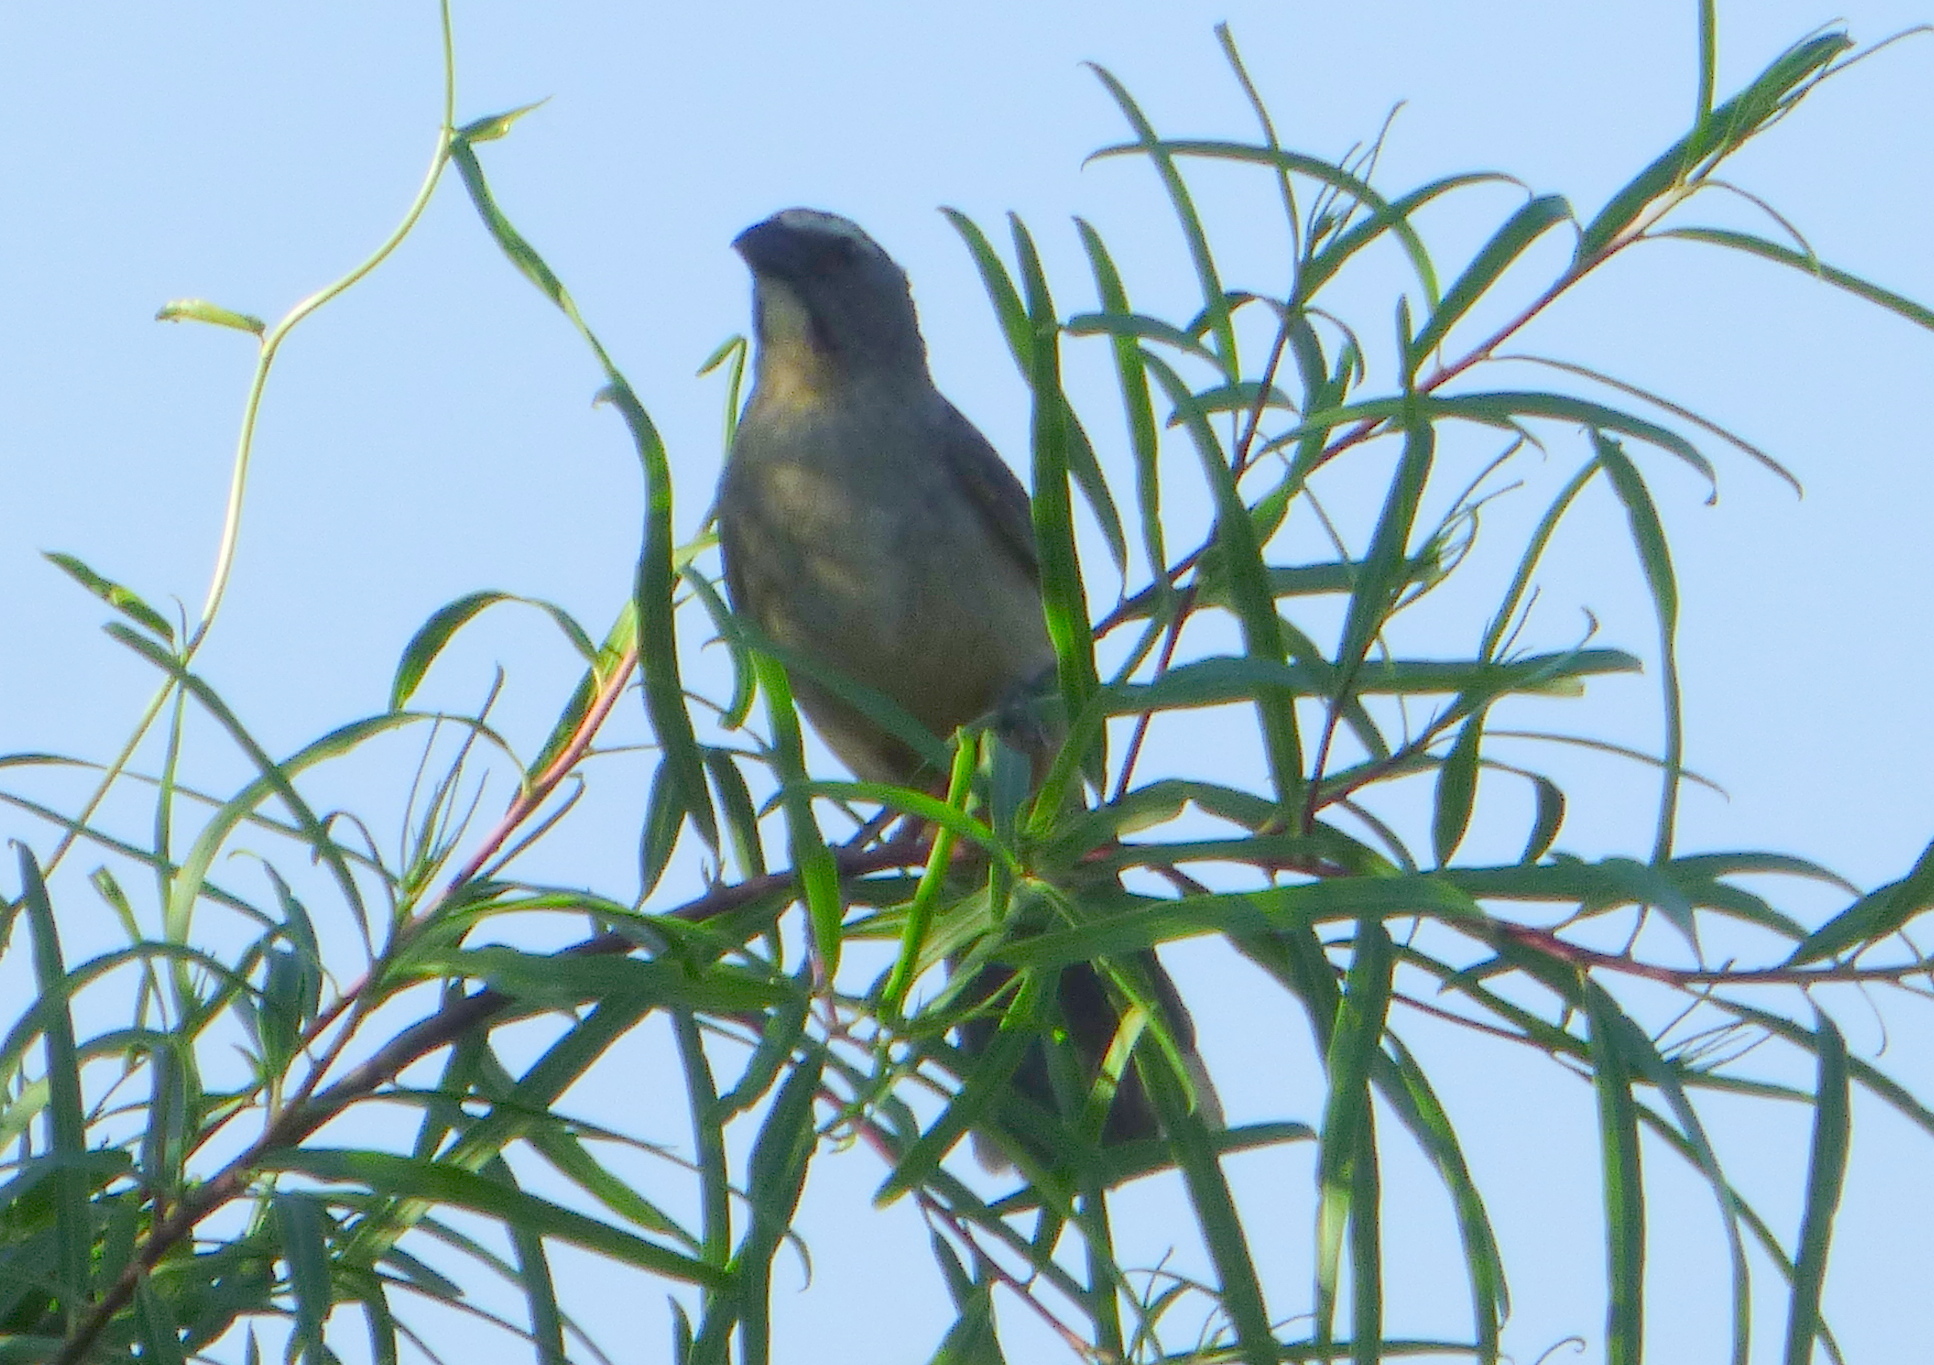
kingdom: Animalia
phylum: Chordata
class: Aves
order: Passeriformes
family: Thraupidae
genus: Saltator
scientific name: Saltator coerulescens
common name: Grayish saltator
